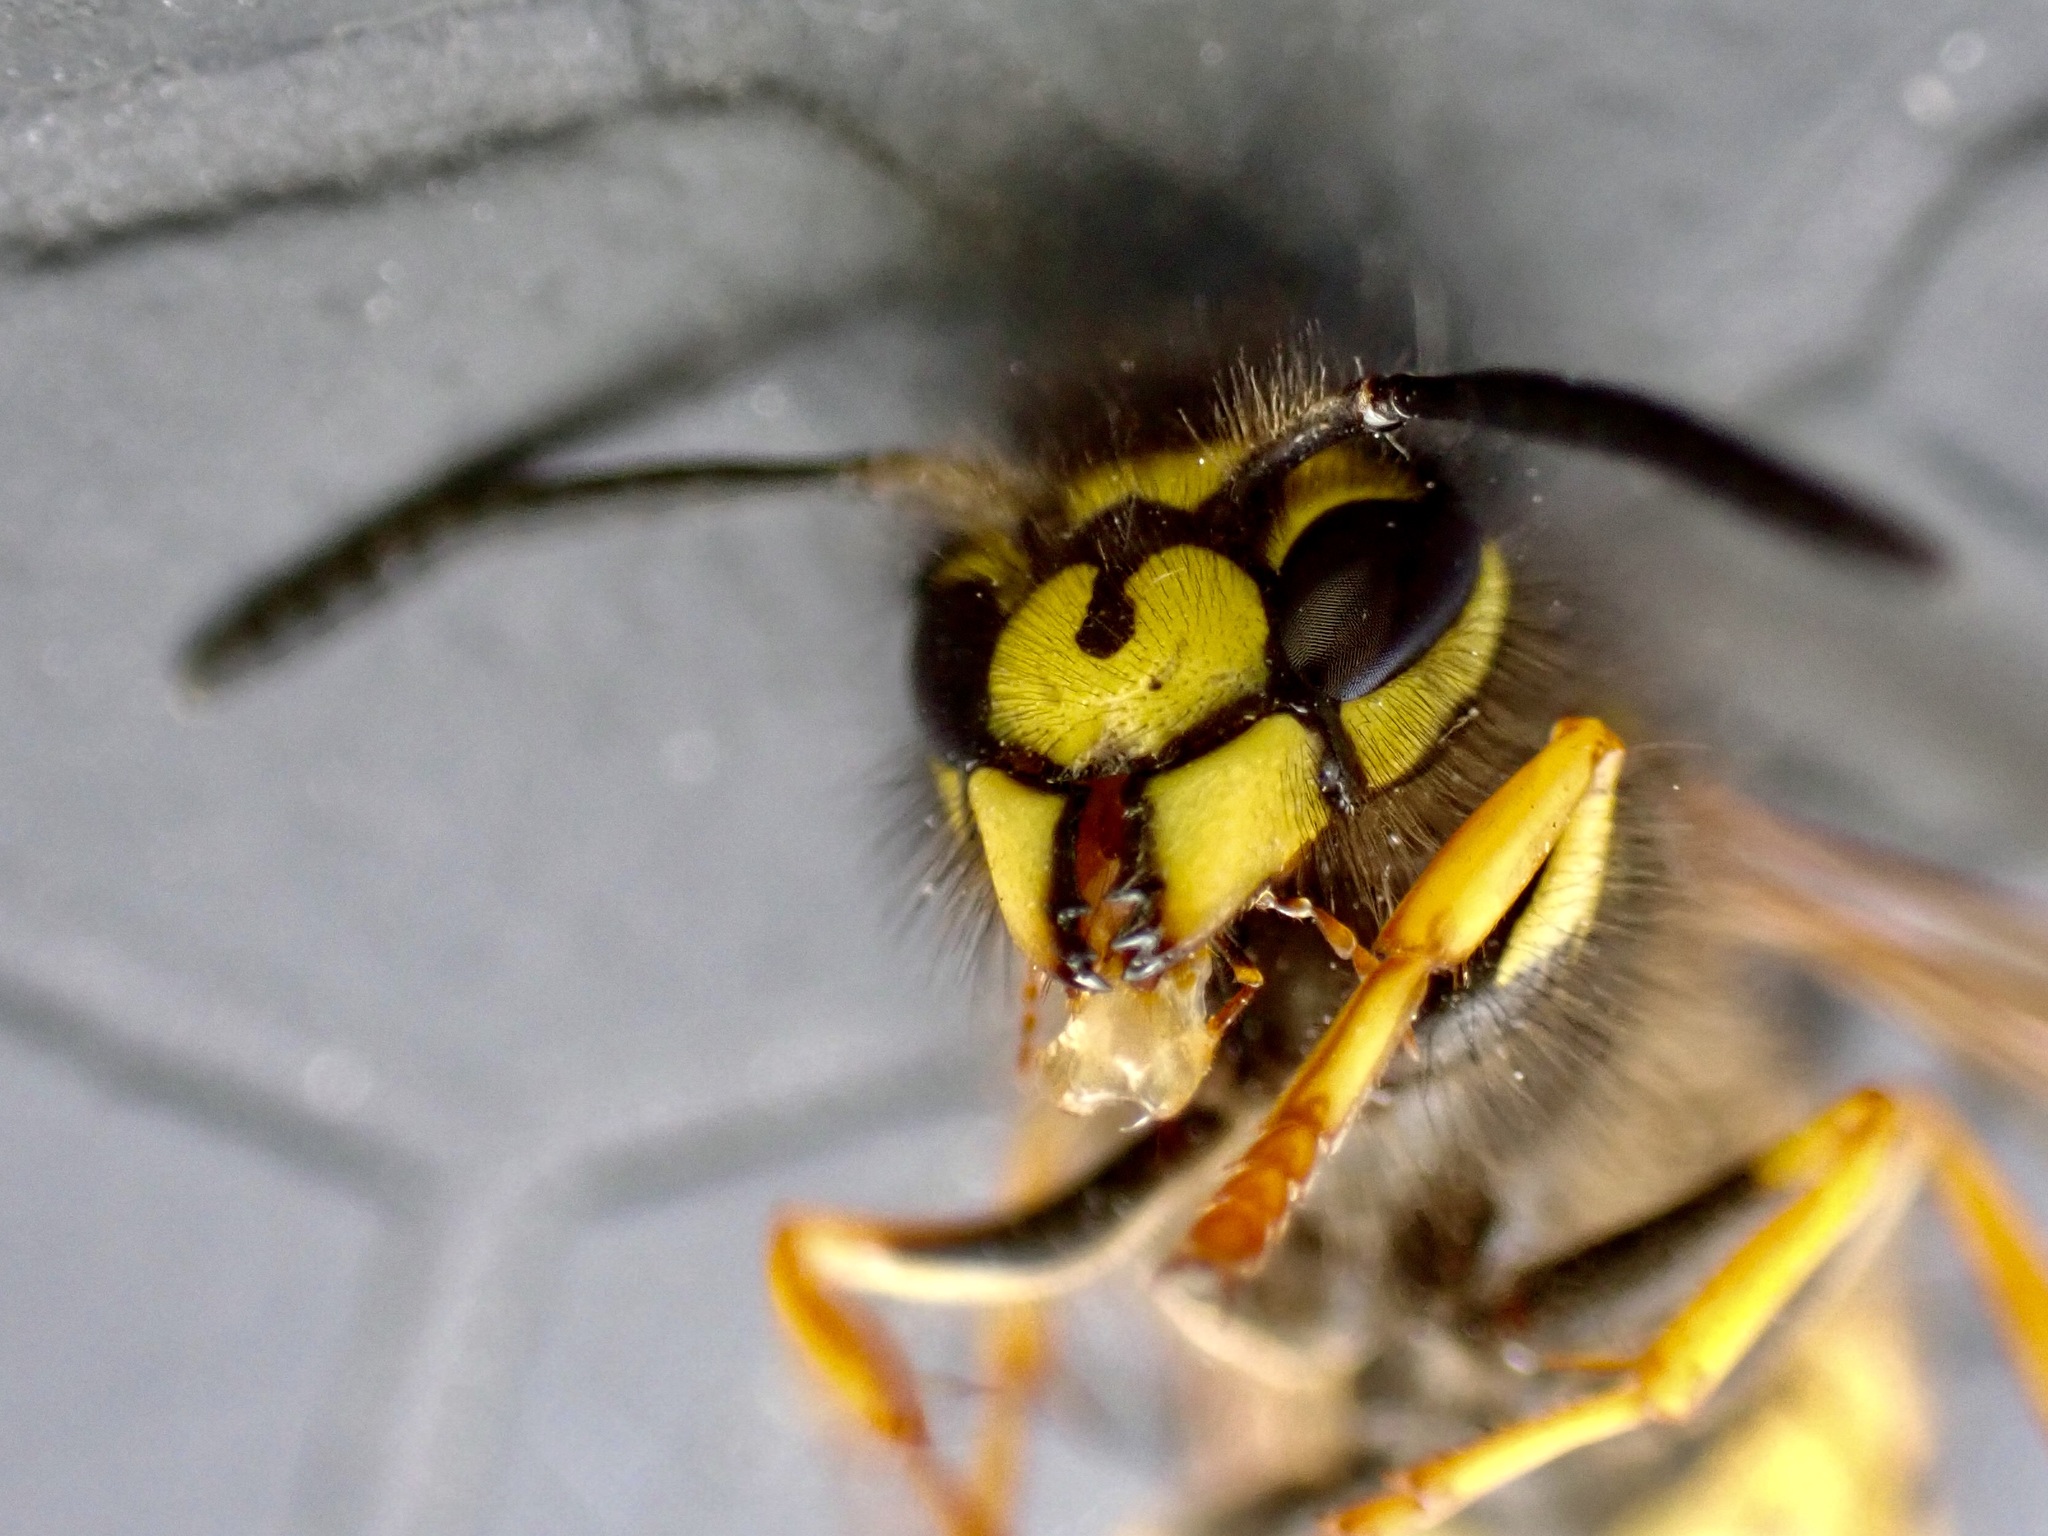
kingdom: Animalia
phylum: Arthropoda
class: Insecta
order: Hymenoptera
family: Vespidae
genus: Vespula
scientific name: Vespula germanica
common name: German wasp
